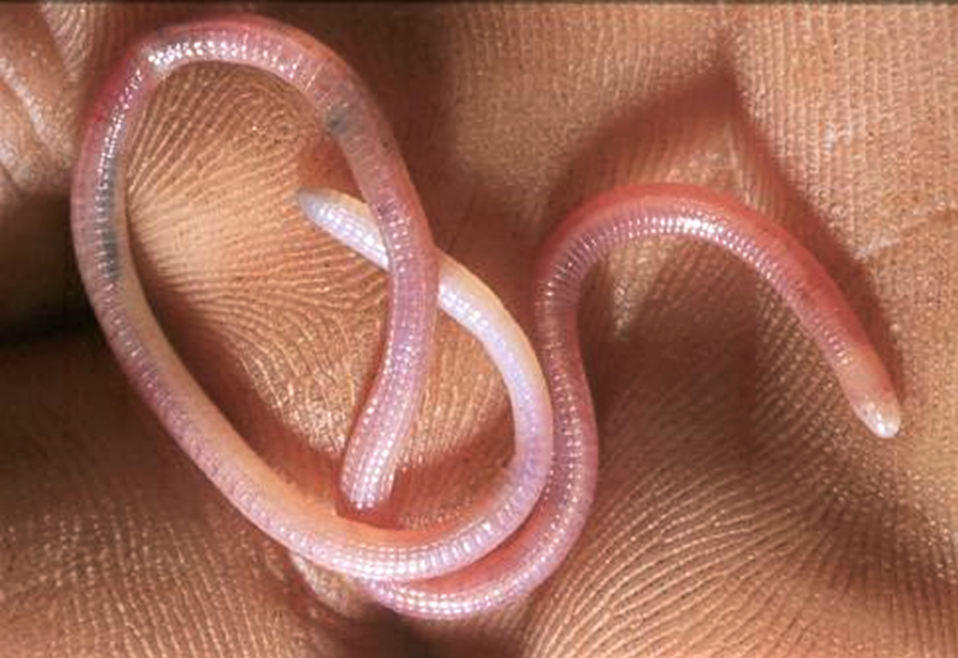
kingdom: Animalia
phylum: Chordata
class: Squamata
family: Amphisbaenidae
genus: Cynisca
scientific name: Cynisca bifrontalis
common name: French congo worm lizard
